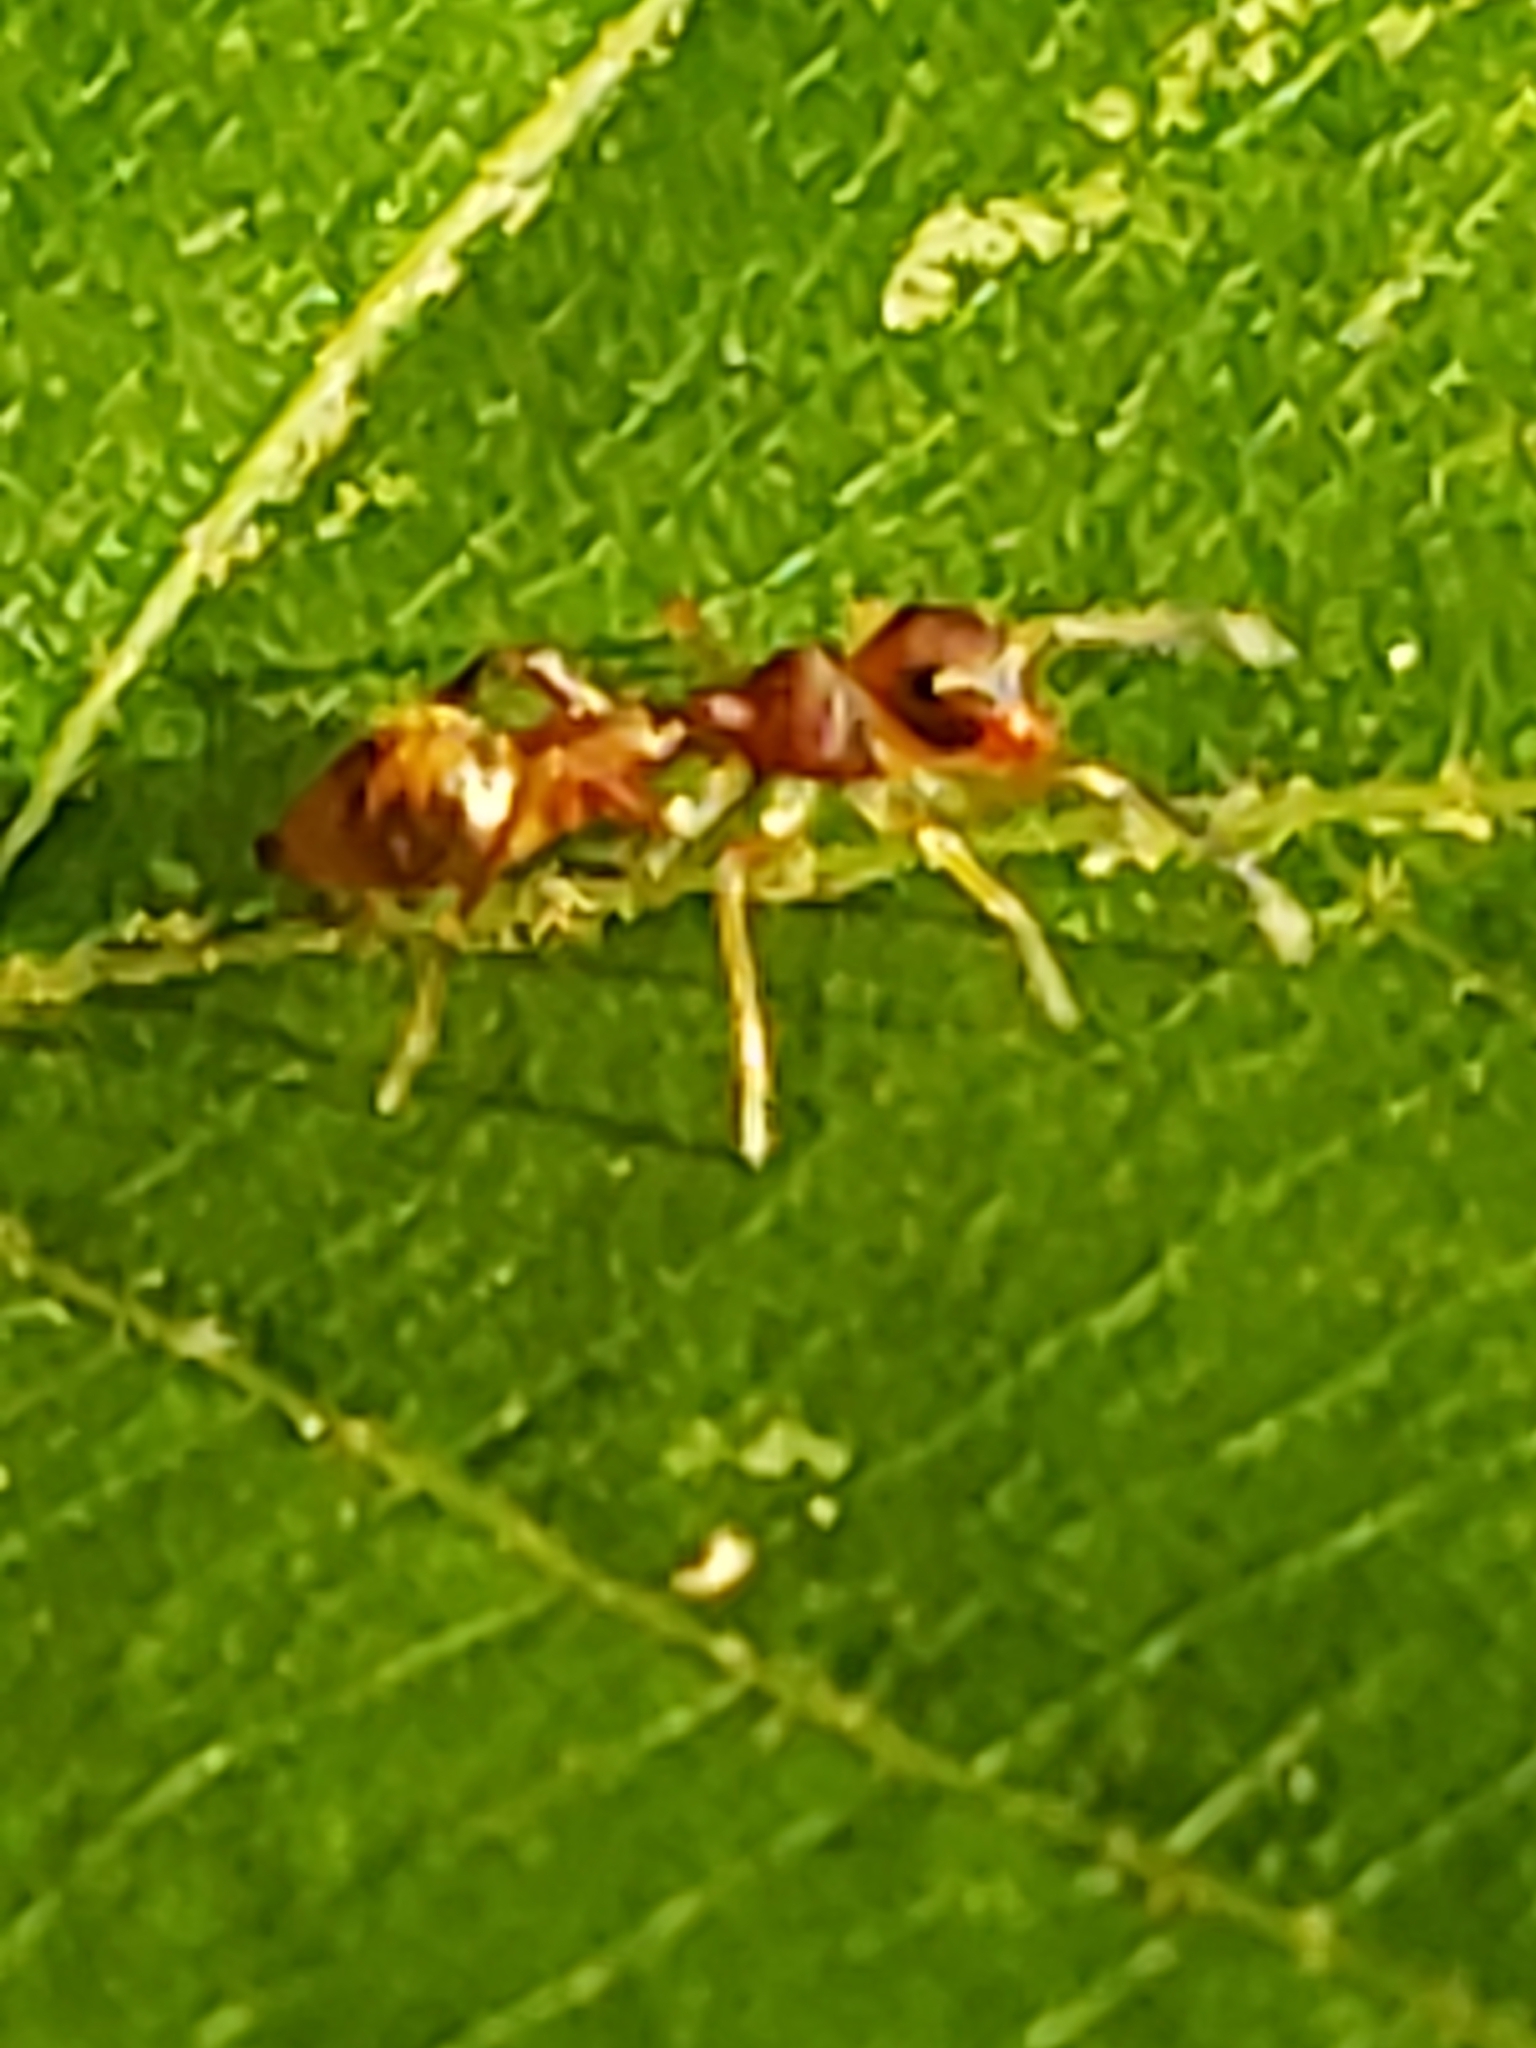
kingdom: Animalia
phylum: Arthropoda
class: Arachnida
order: Araneae
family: Salticidae
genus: Synemosyna
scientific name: Synemosyna formica
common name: Slender ant-mimic jumping spider
